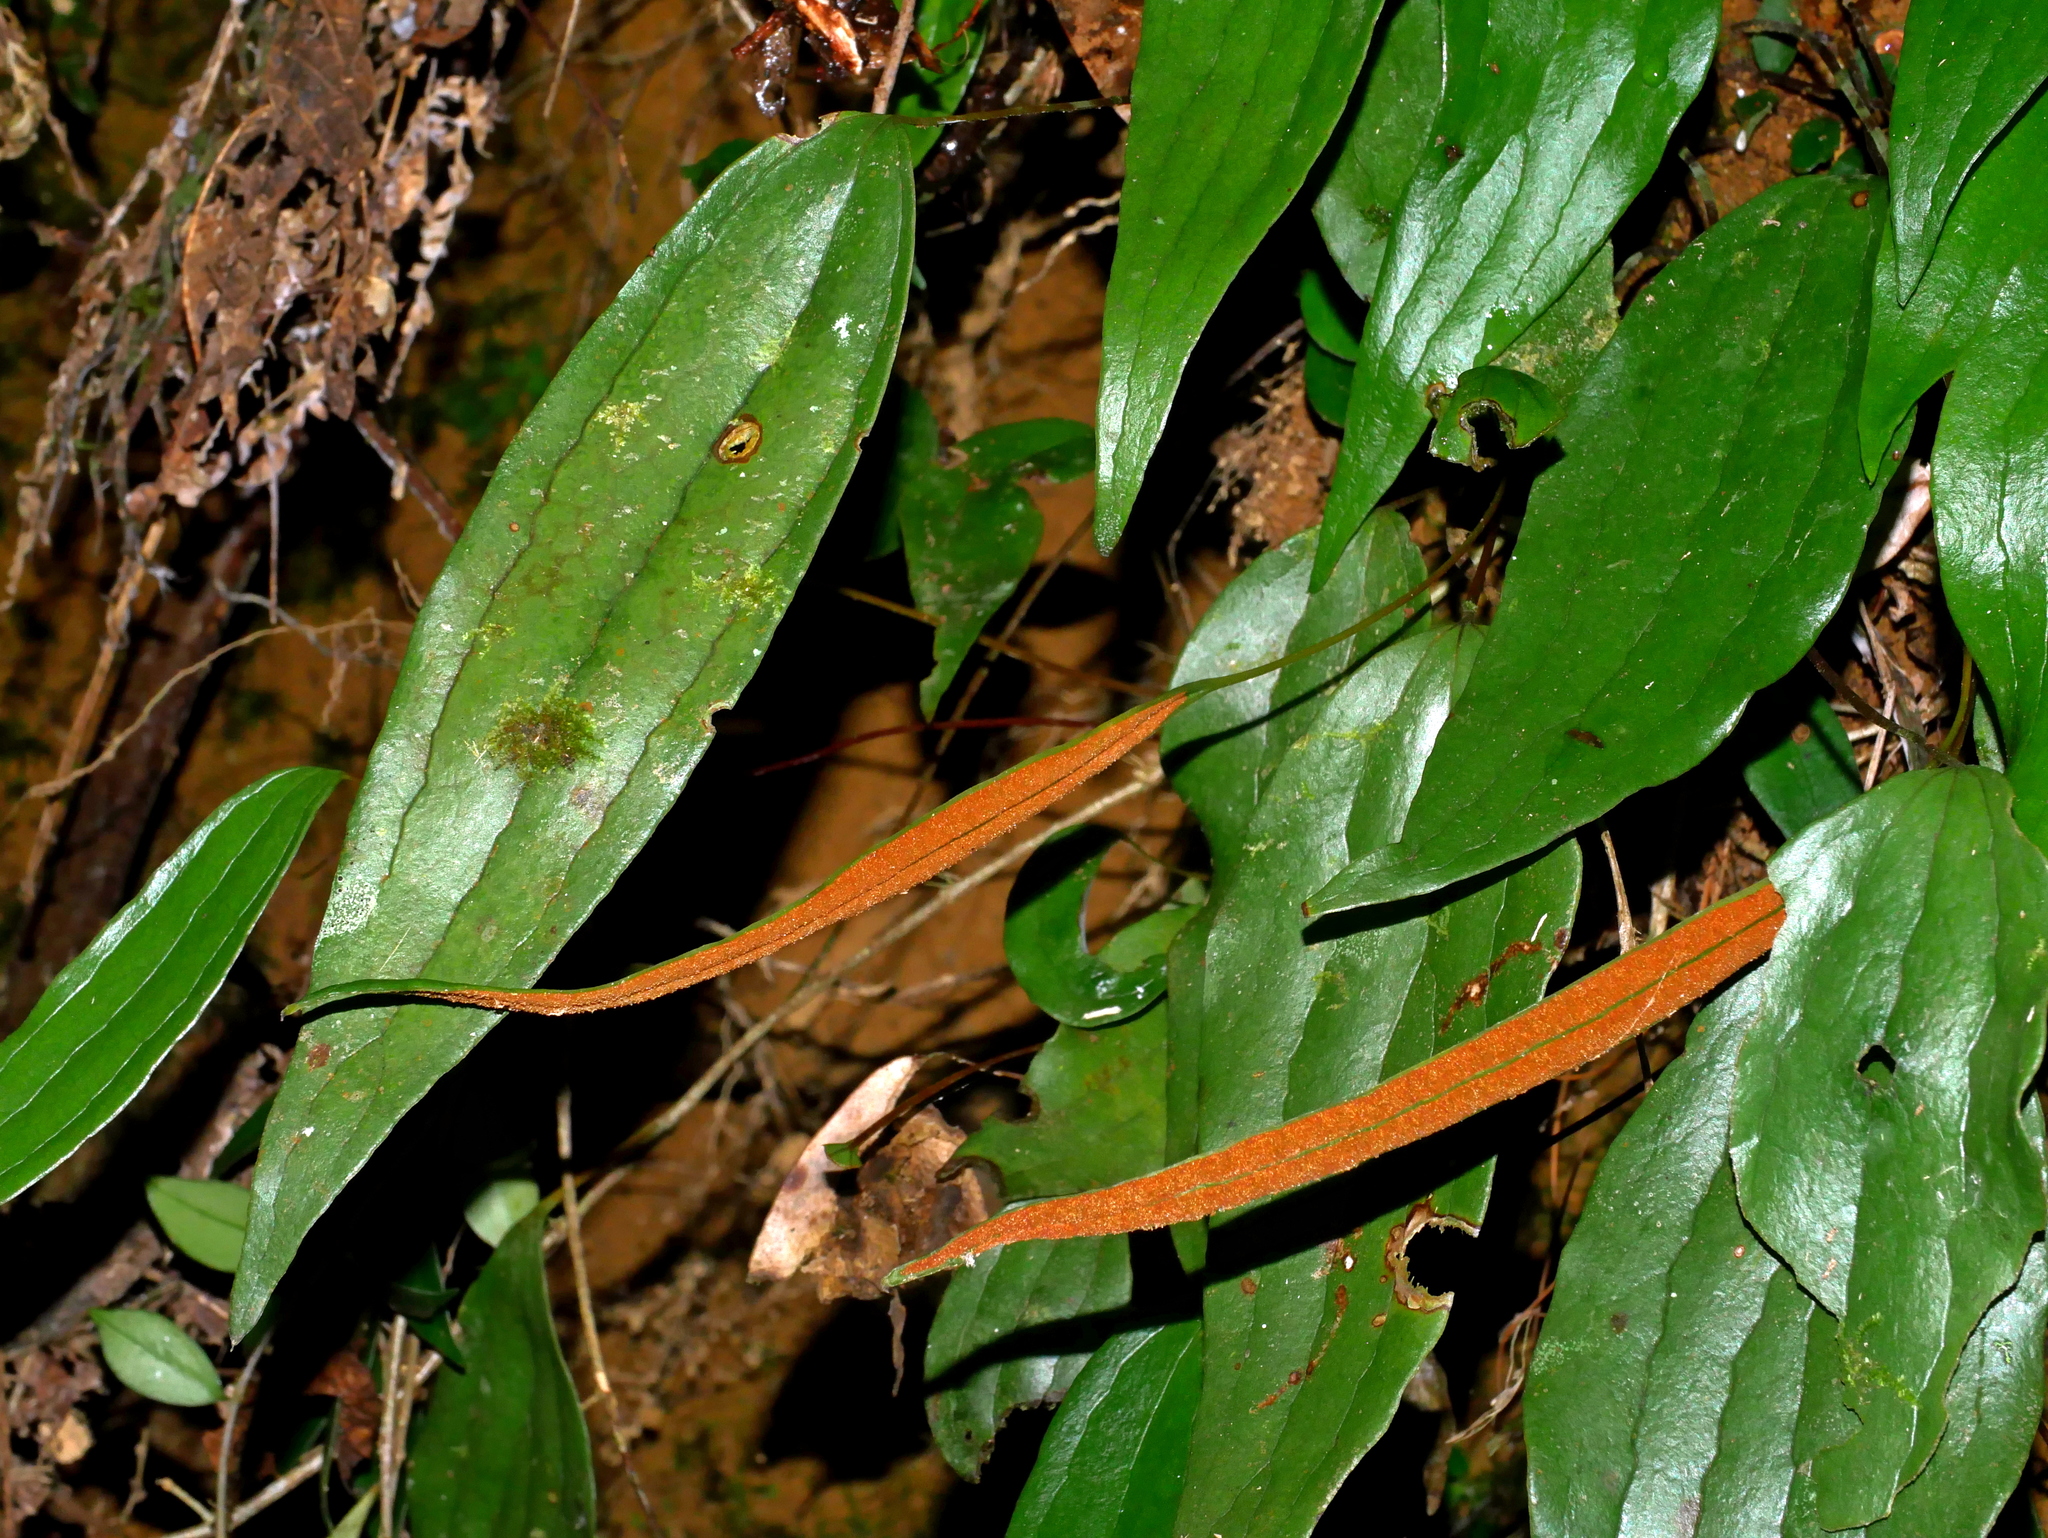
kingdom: Plantae
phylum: Tracheophyta
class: Polypodiopsida
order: Gleicheniales
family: Dipteridaceae
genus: Cheiropleuria
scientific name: Cheiropleuria integrifolia
